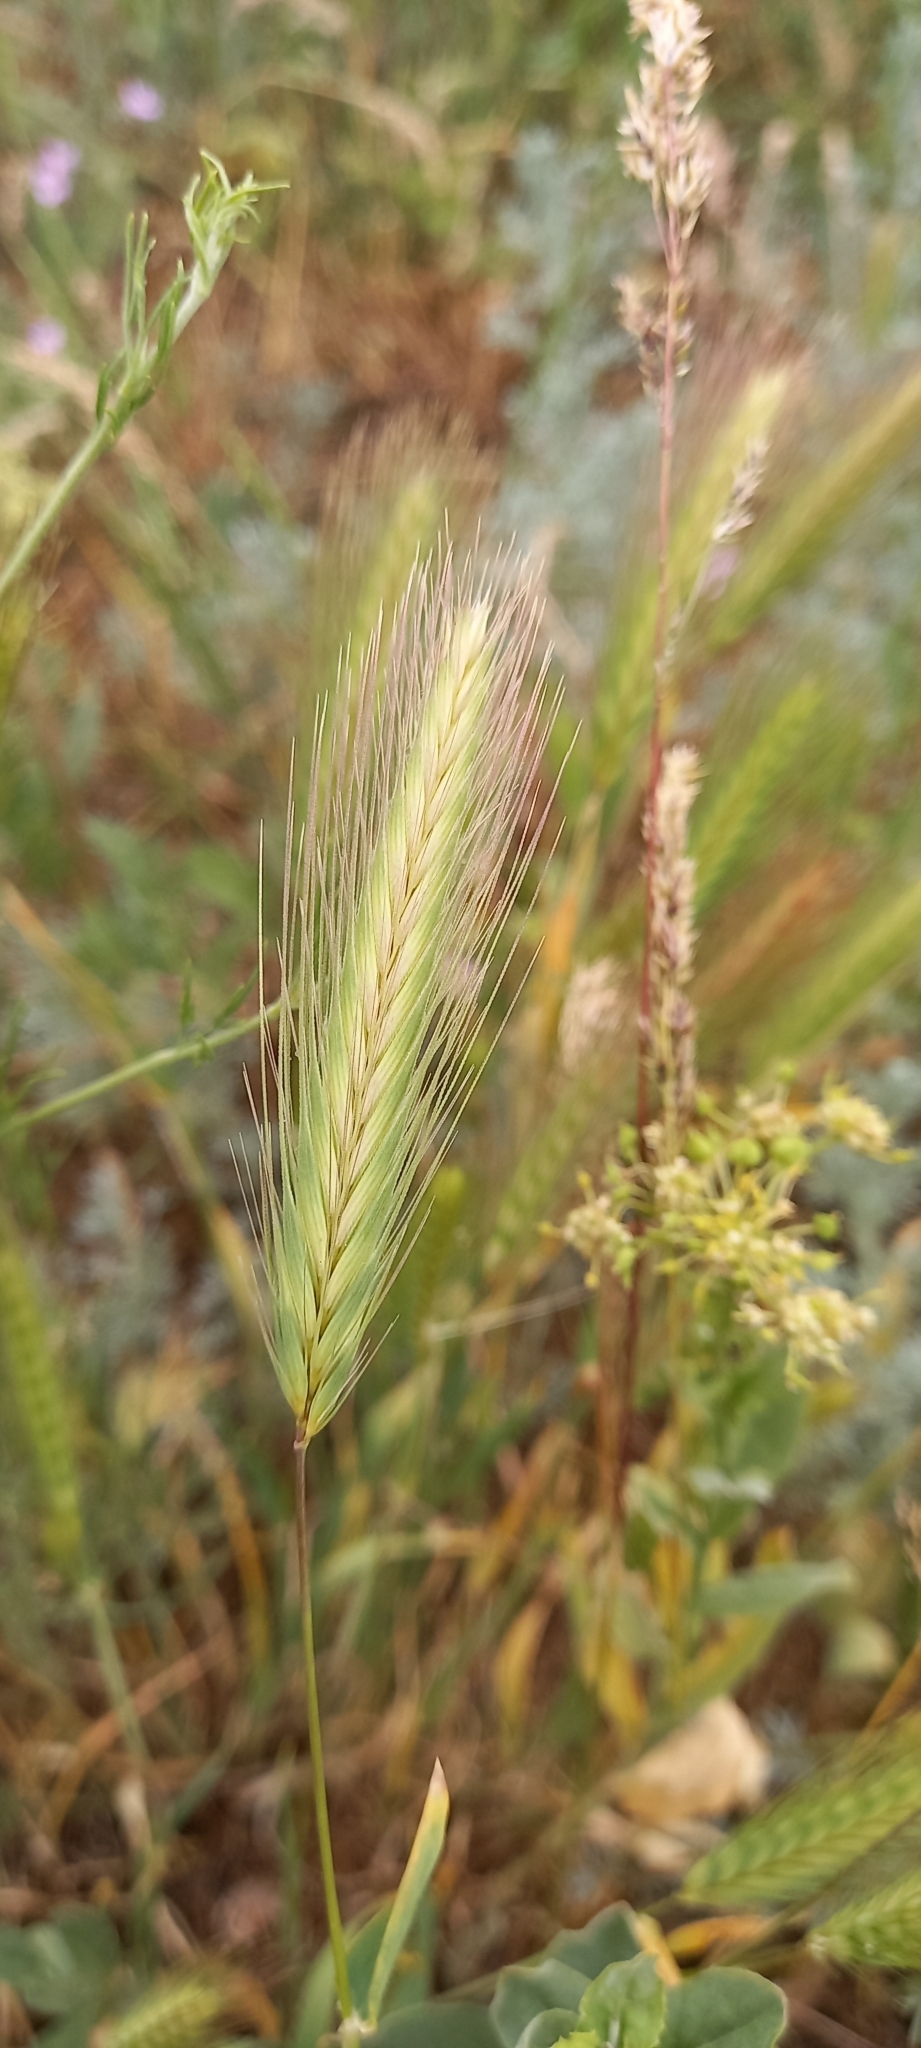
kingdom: Plantae
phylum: Tracheophyta
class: Liliopsida
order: Poales
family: Poaceae
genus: Hordeum
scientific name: Hordeum murinum
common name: Wall barley
